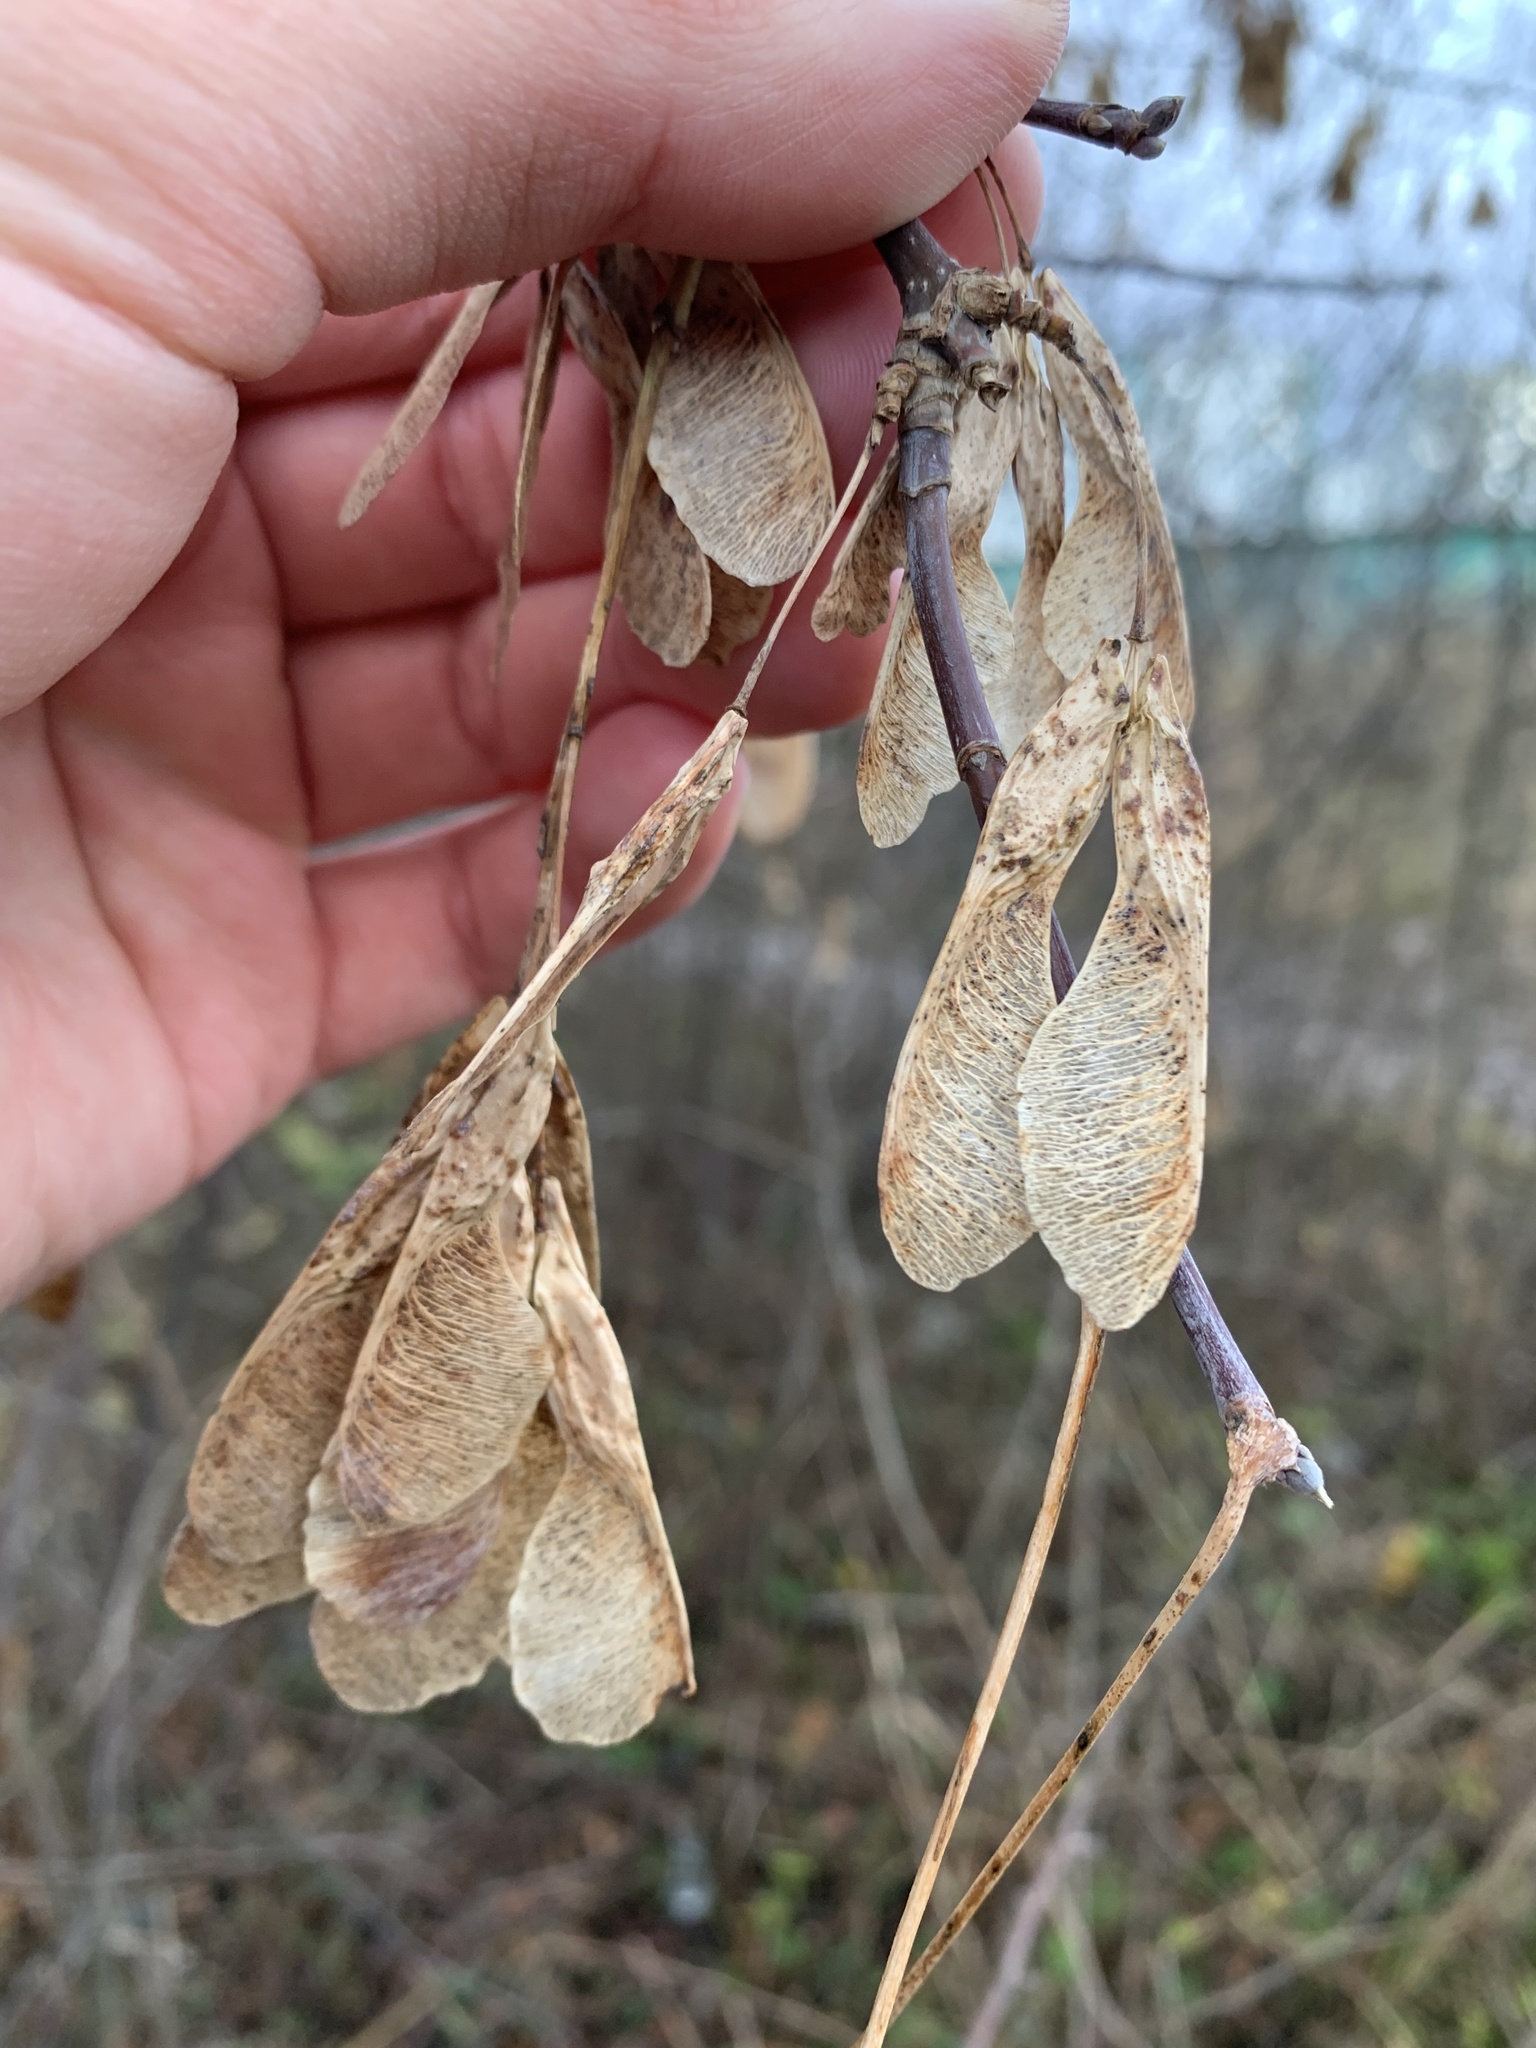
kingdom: Plantae
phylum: Tracheophyta
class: Magnoliopsida
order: Sapindales
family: Sapindaceae
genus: Acer
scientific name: Acer negundo
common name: Ashleaf maple
